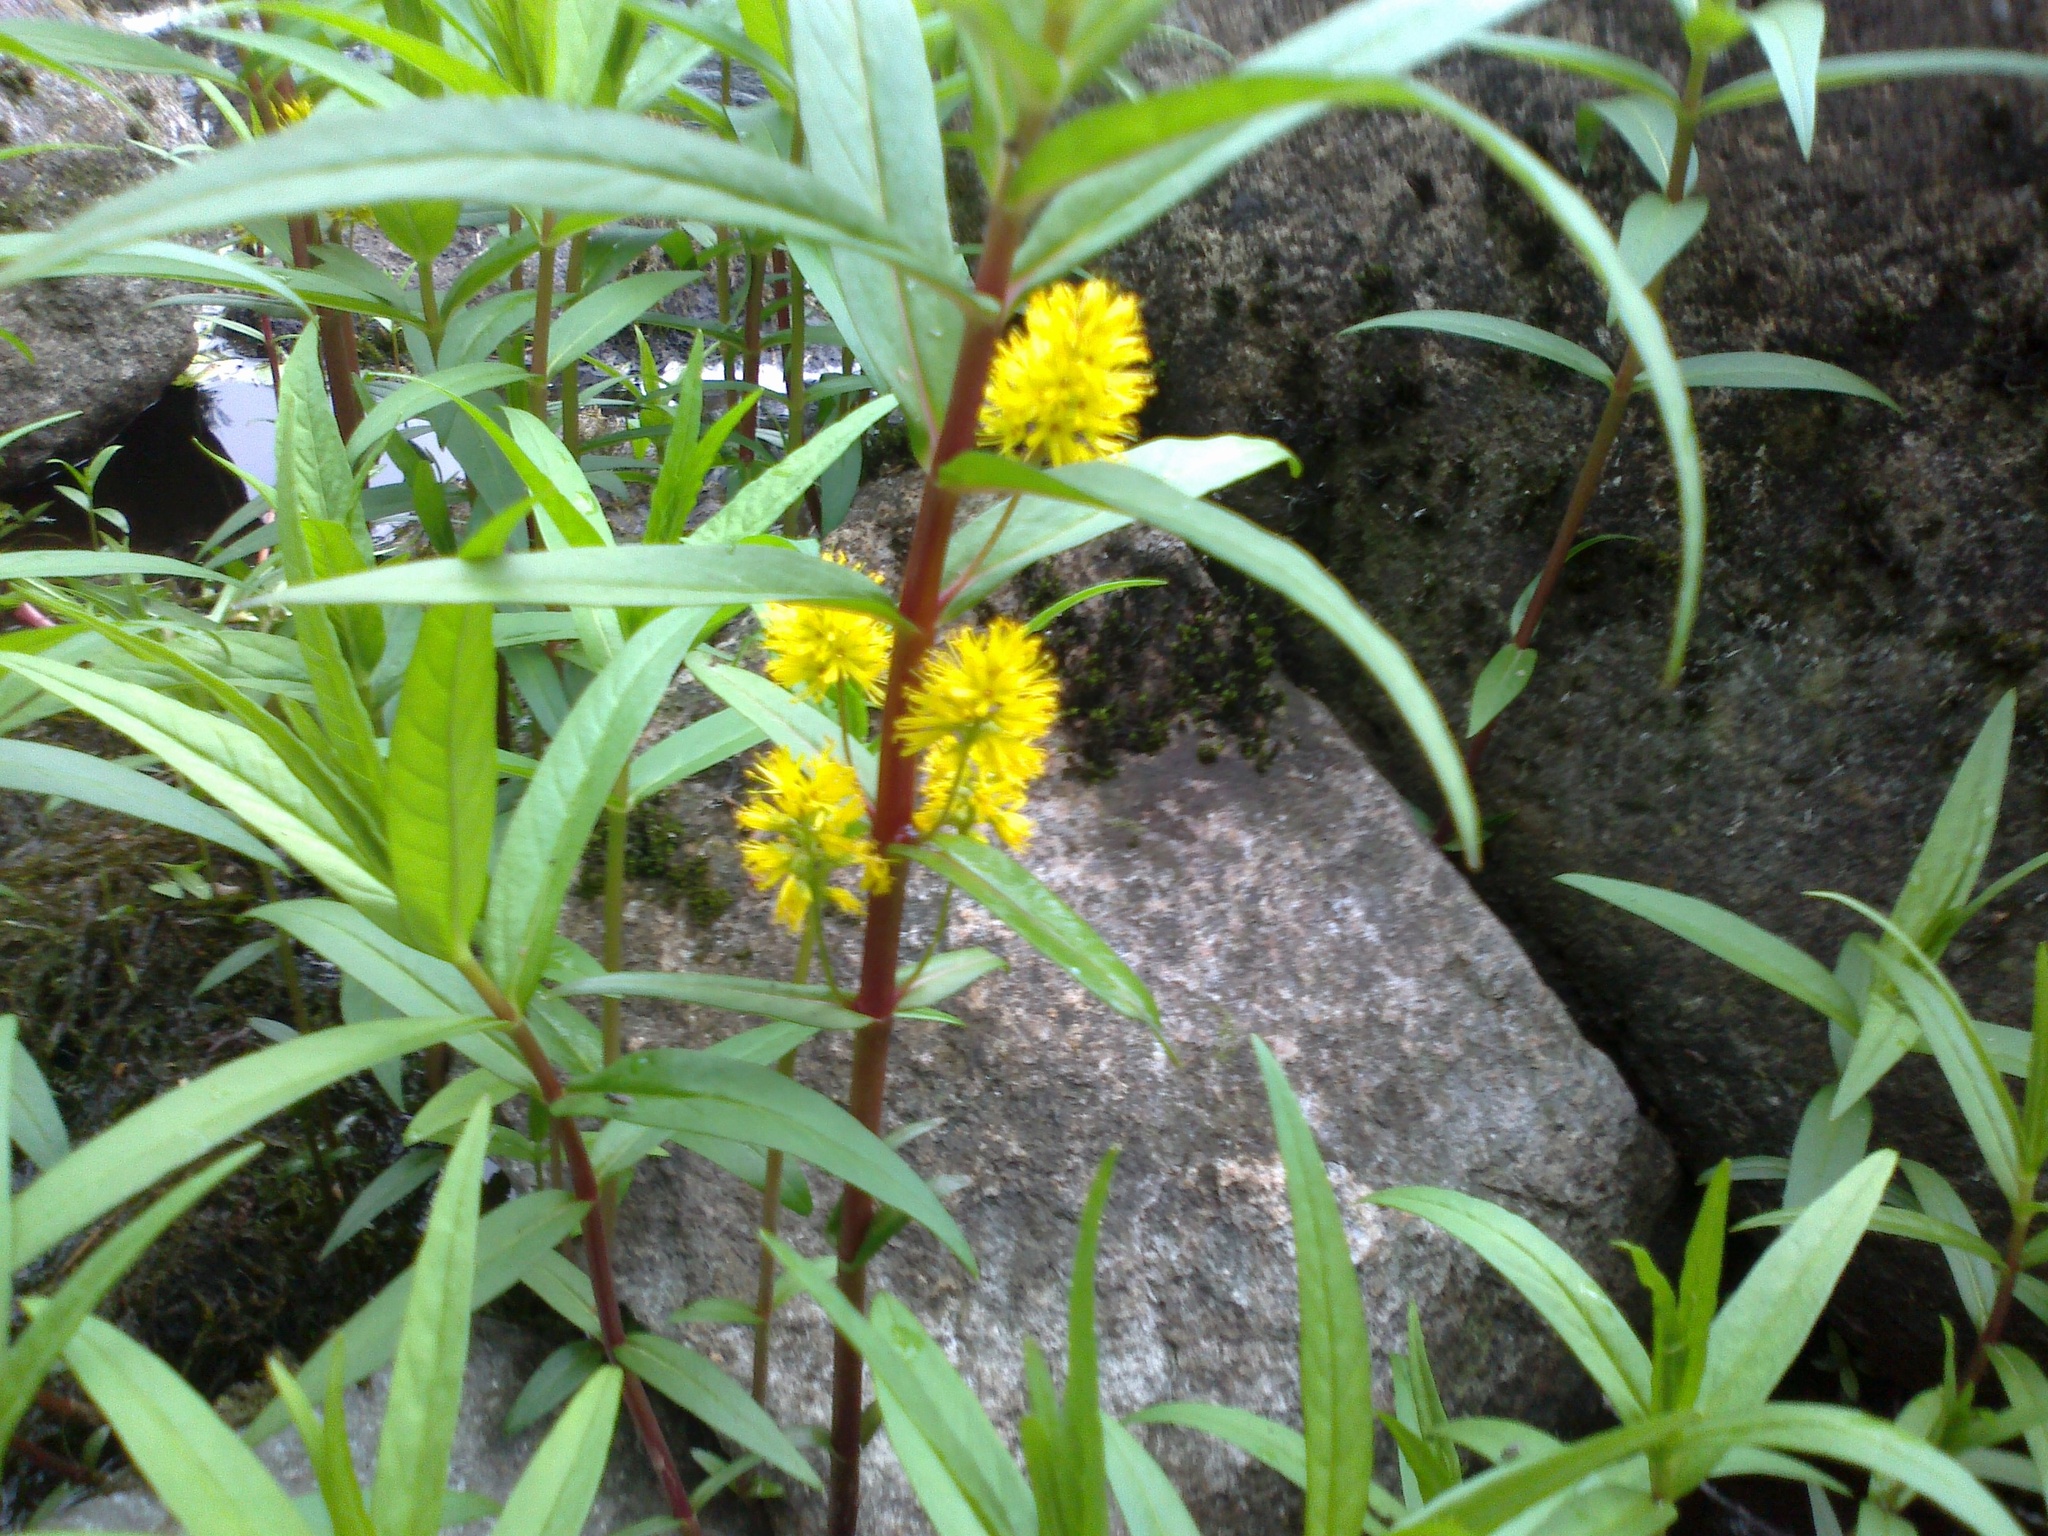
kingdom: Plantae
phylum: Tracheophyta
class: Magnoliopsida
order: Ericales
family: Primulaceae
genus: Lysimachia
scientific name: Lysimachia thyrsiflora
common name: Tufted loosestrife
